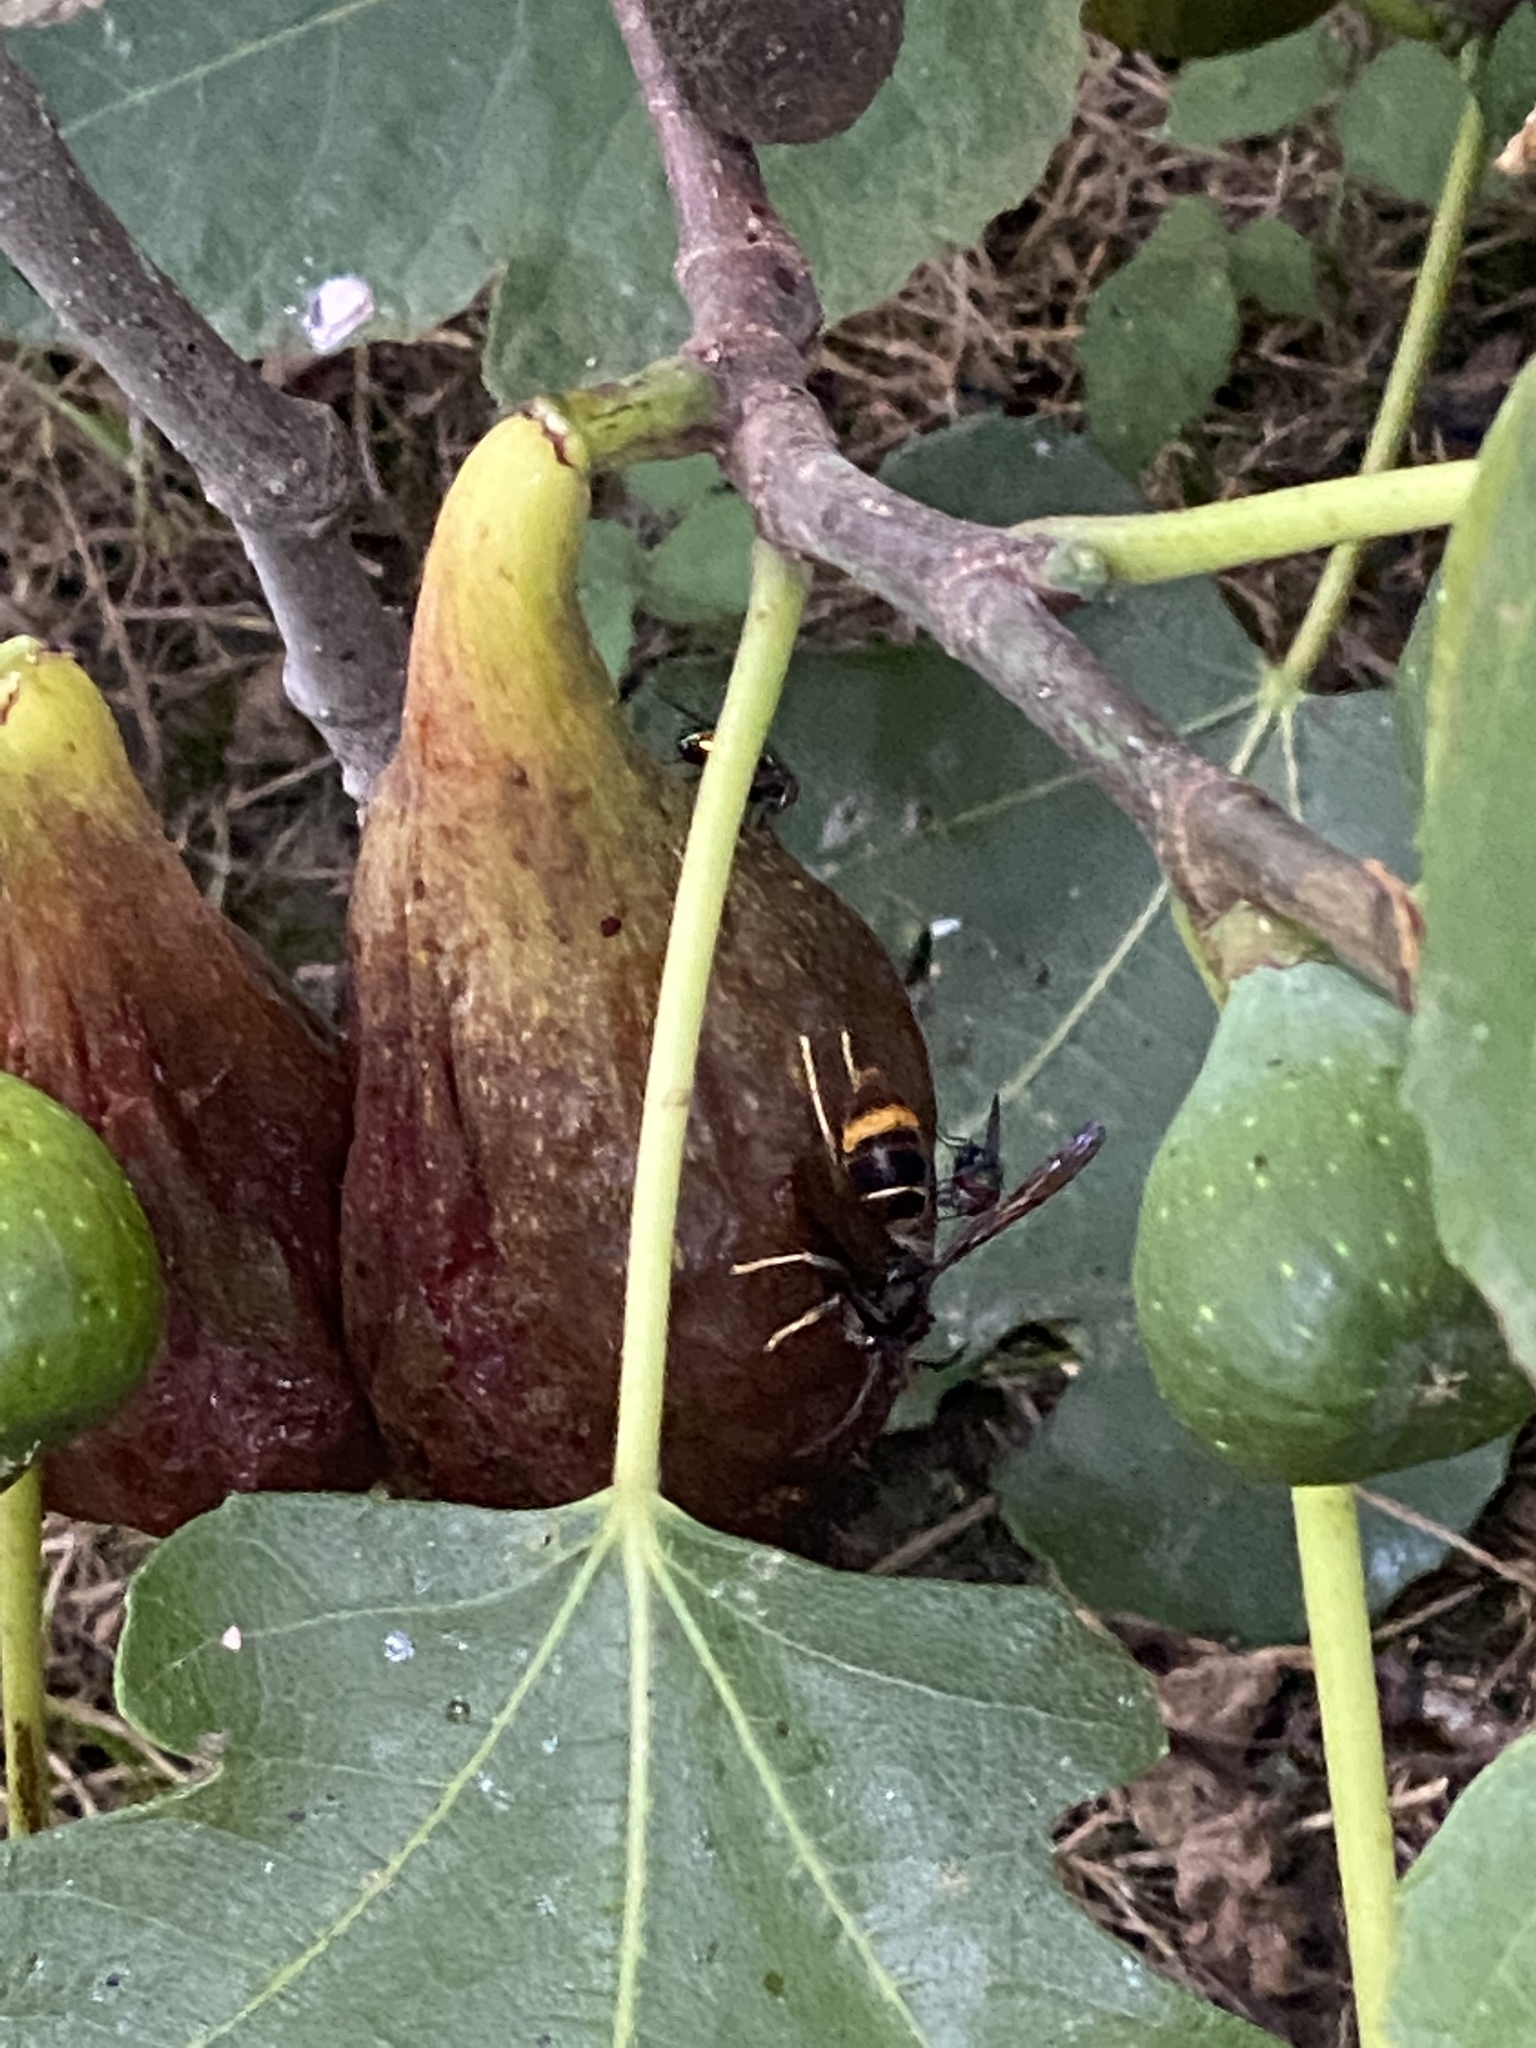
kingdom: Animalia
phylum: Arthropoda
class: Insecta
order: Hymenoptera
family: Vespidae
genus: Vespa
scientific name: Vespa velutina
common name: Asian hornet
